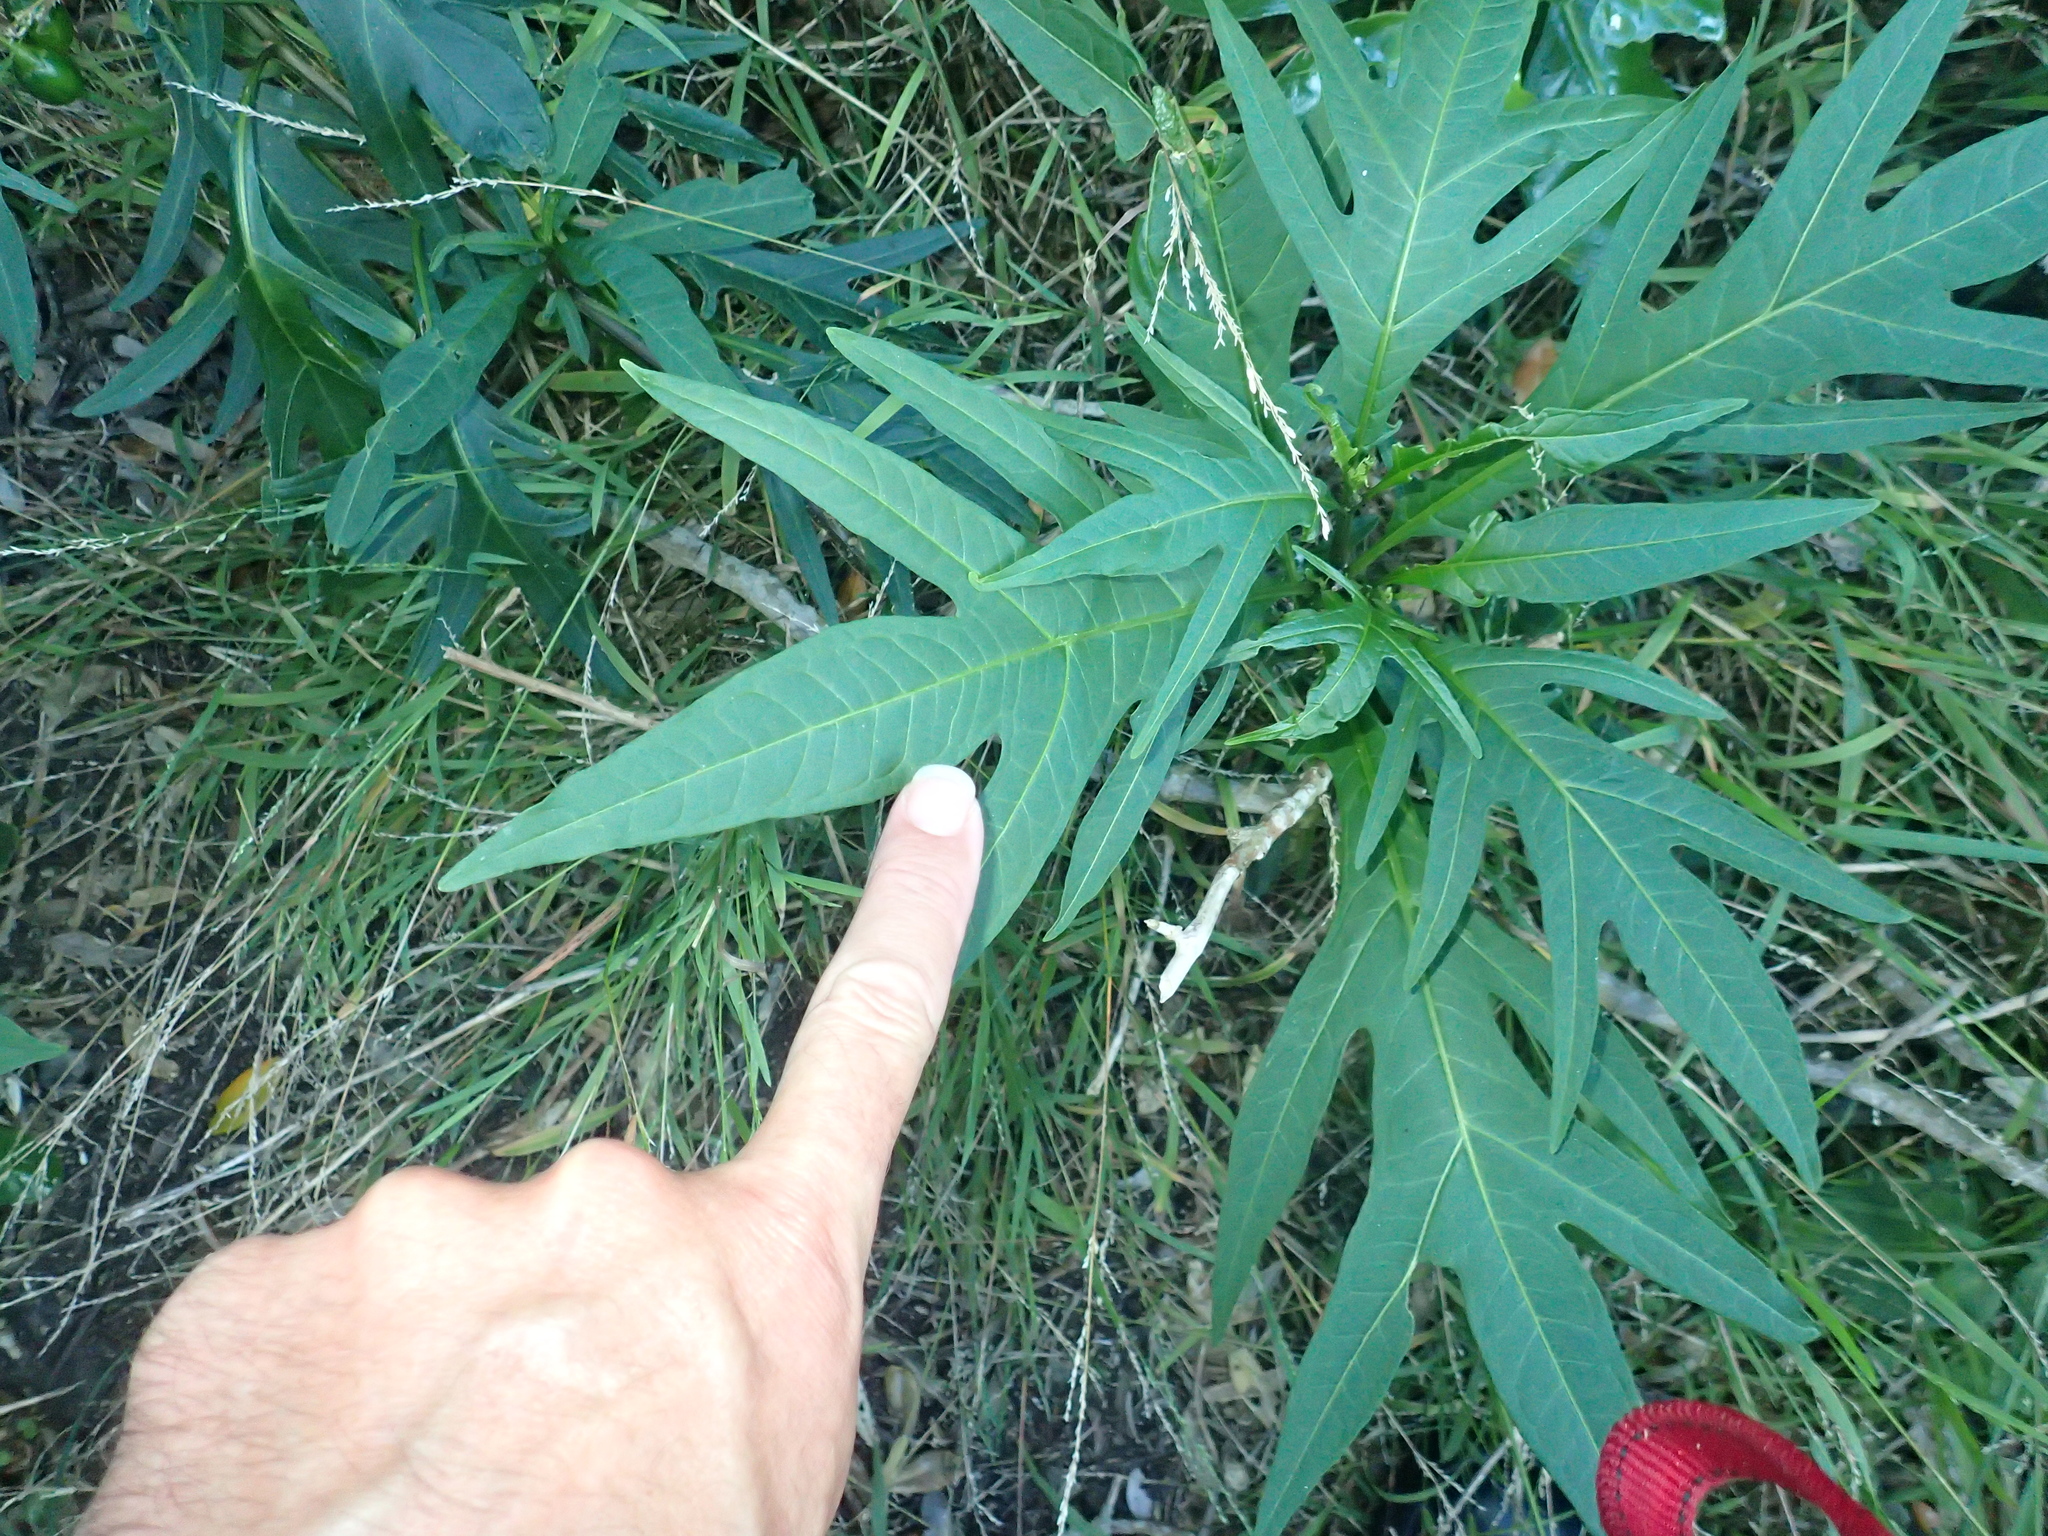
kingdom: Plantae
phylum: Tracheophyta
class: Magnoliopsida
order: Solanales
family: Solanaceae
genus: Solanum
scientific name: Solanum laciniatum
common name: Kangaroo-apple
